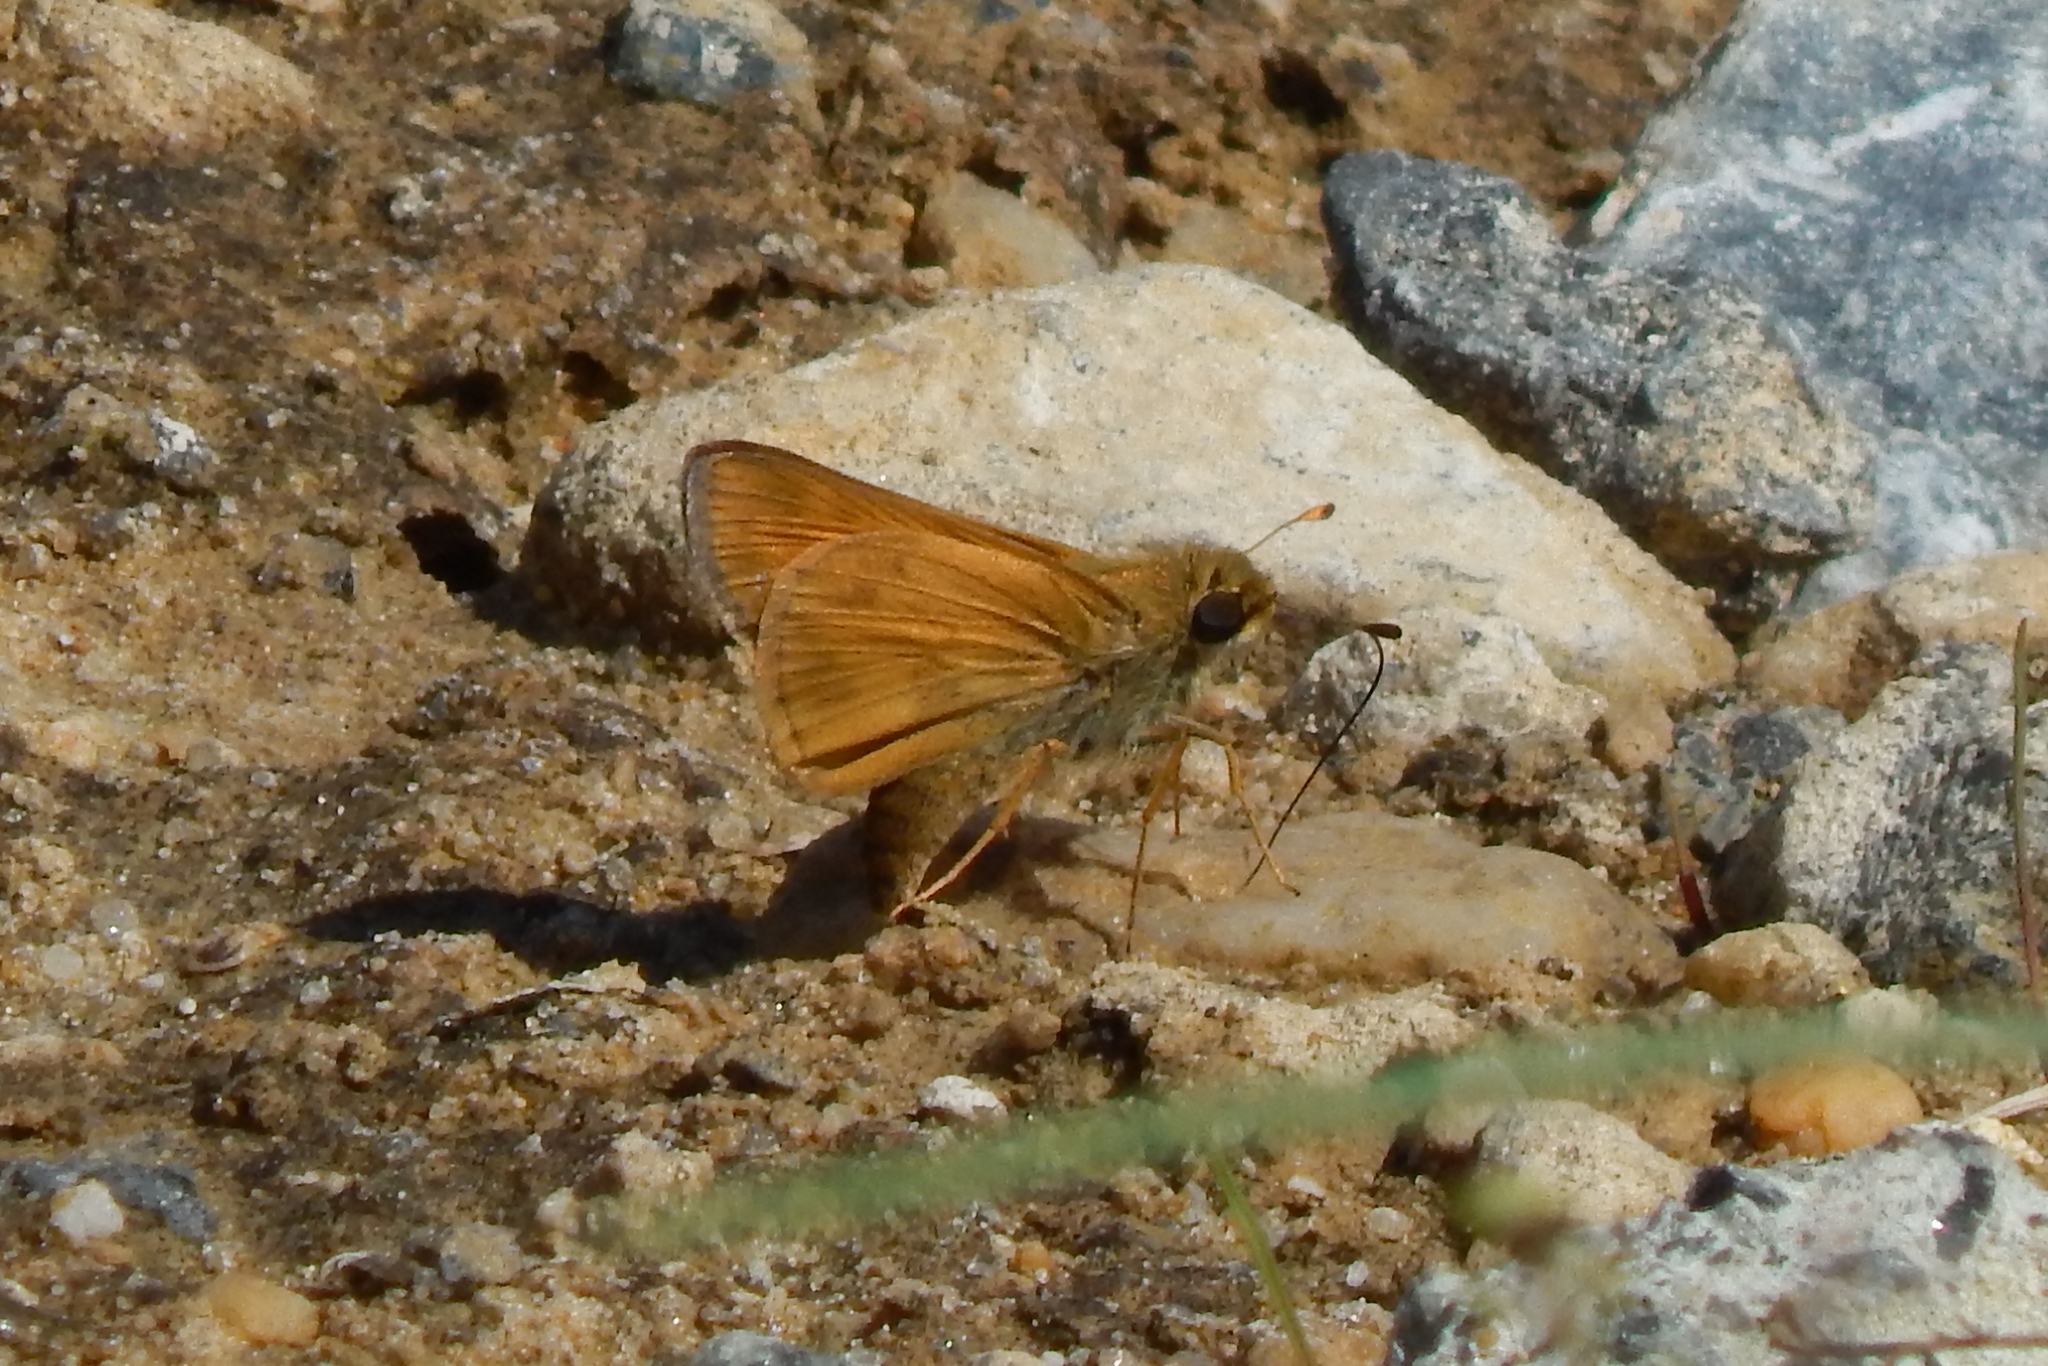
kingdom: Animalia
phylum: Arthropoda
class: Insecta
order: Lepidoptera
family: Hesperiidae
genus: Atalopedes
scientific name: Atalopedes
